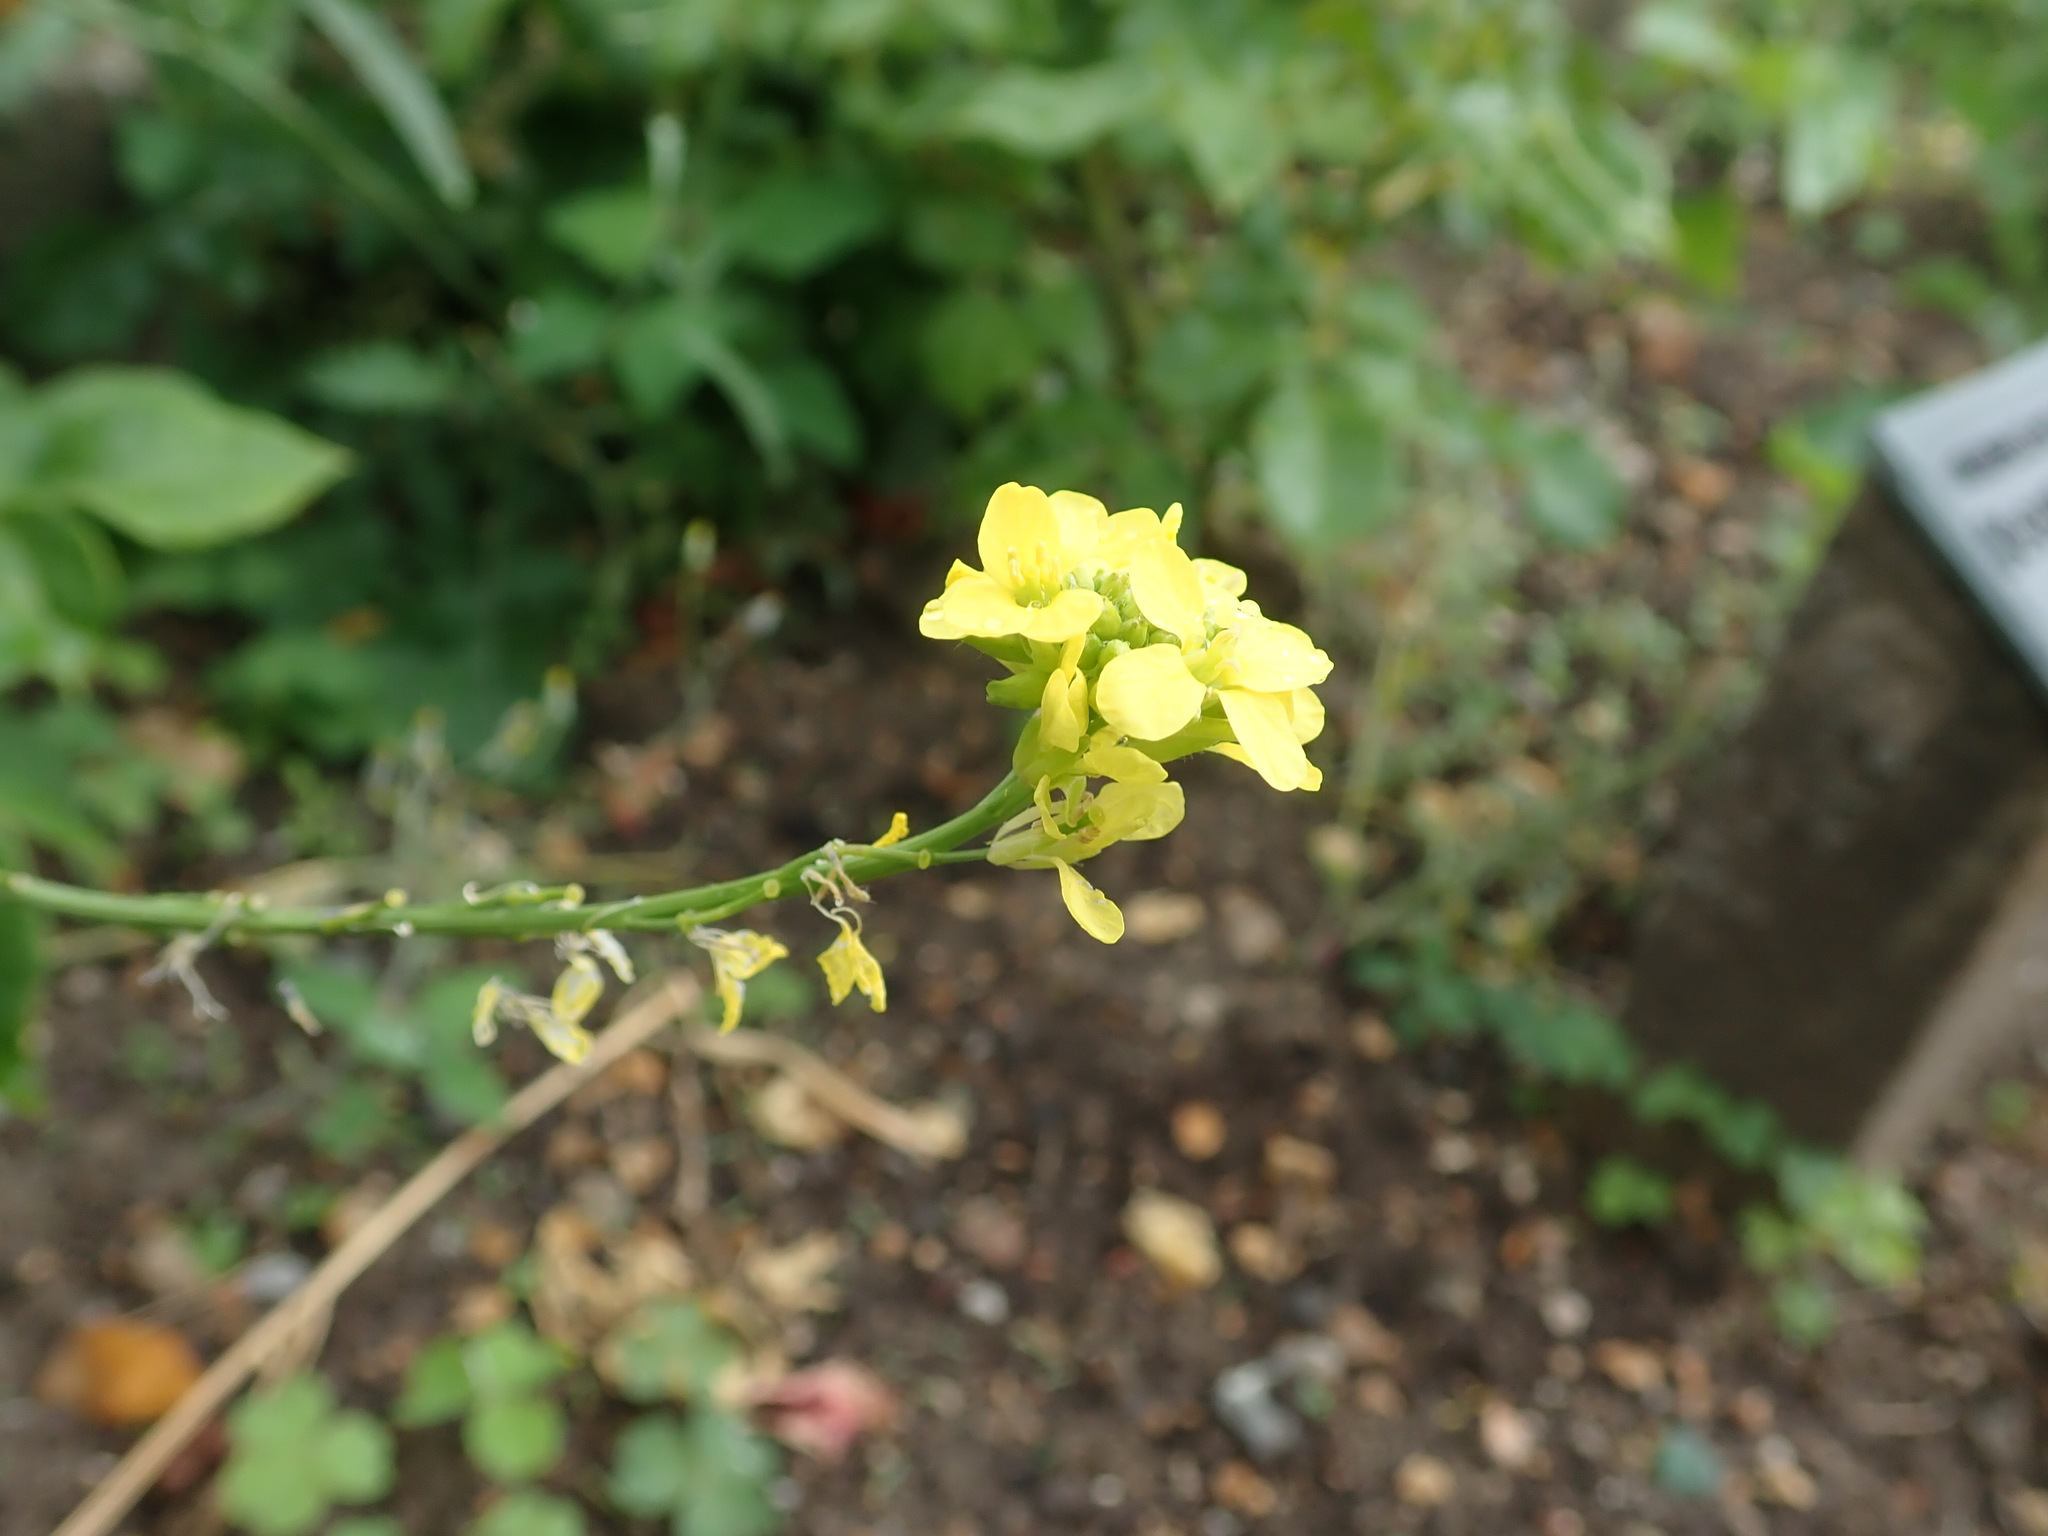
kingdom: Plantae
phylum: Tracheophyta
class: Magnoliopsida
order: Brassicales
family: Brassicaceae
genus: Hirschfeldia
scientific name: Hirschfeldia incana
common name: Hoary mustard
